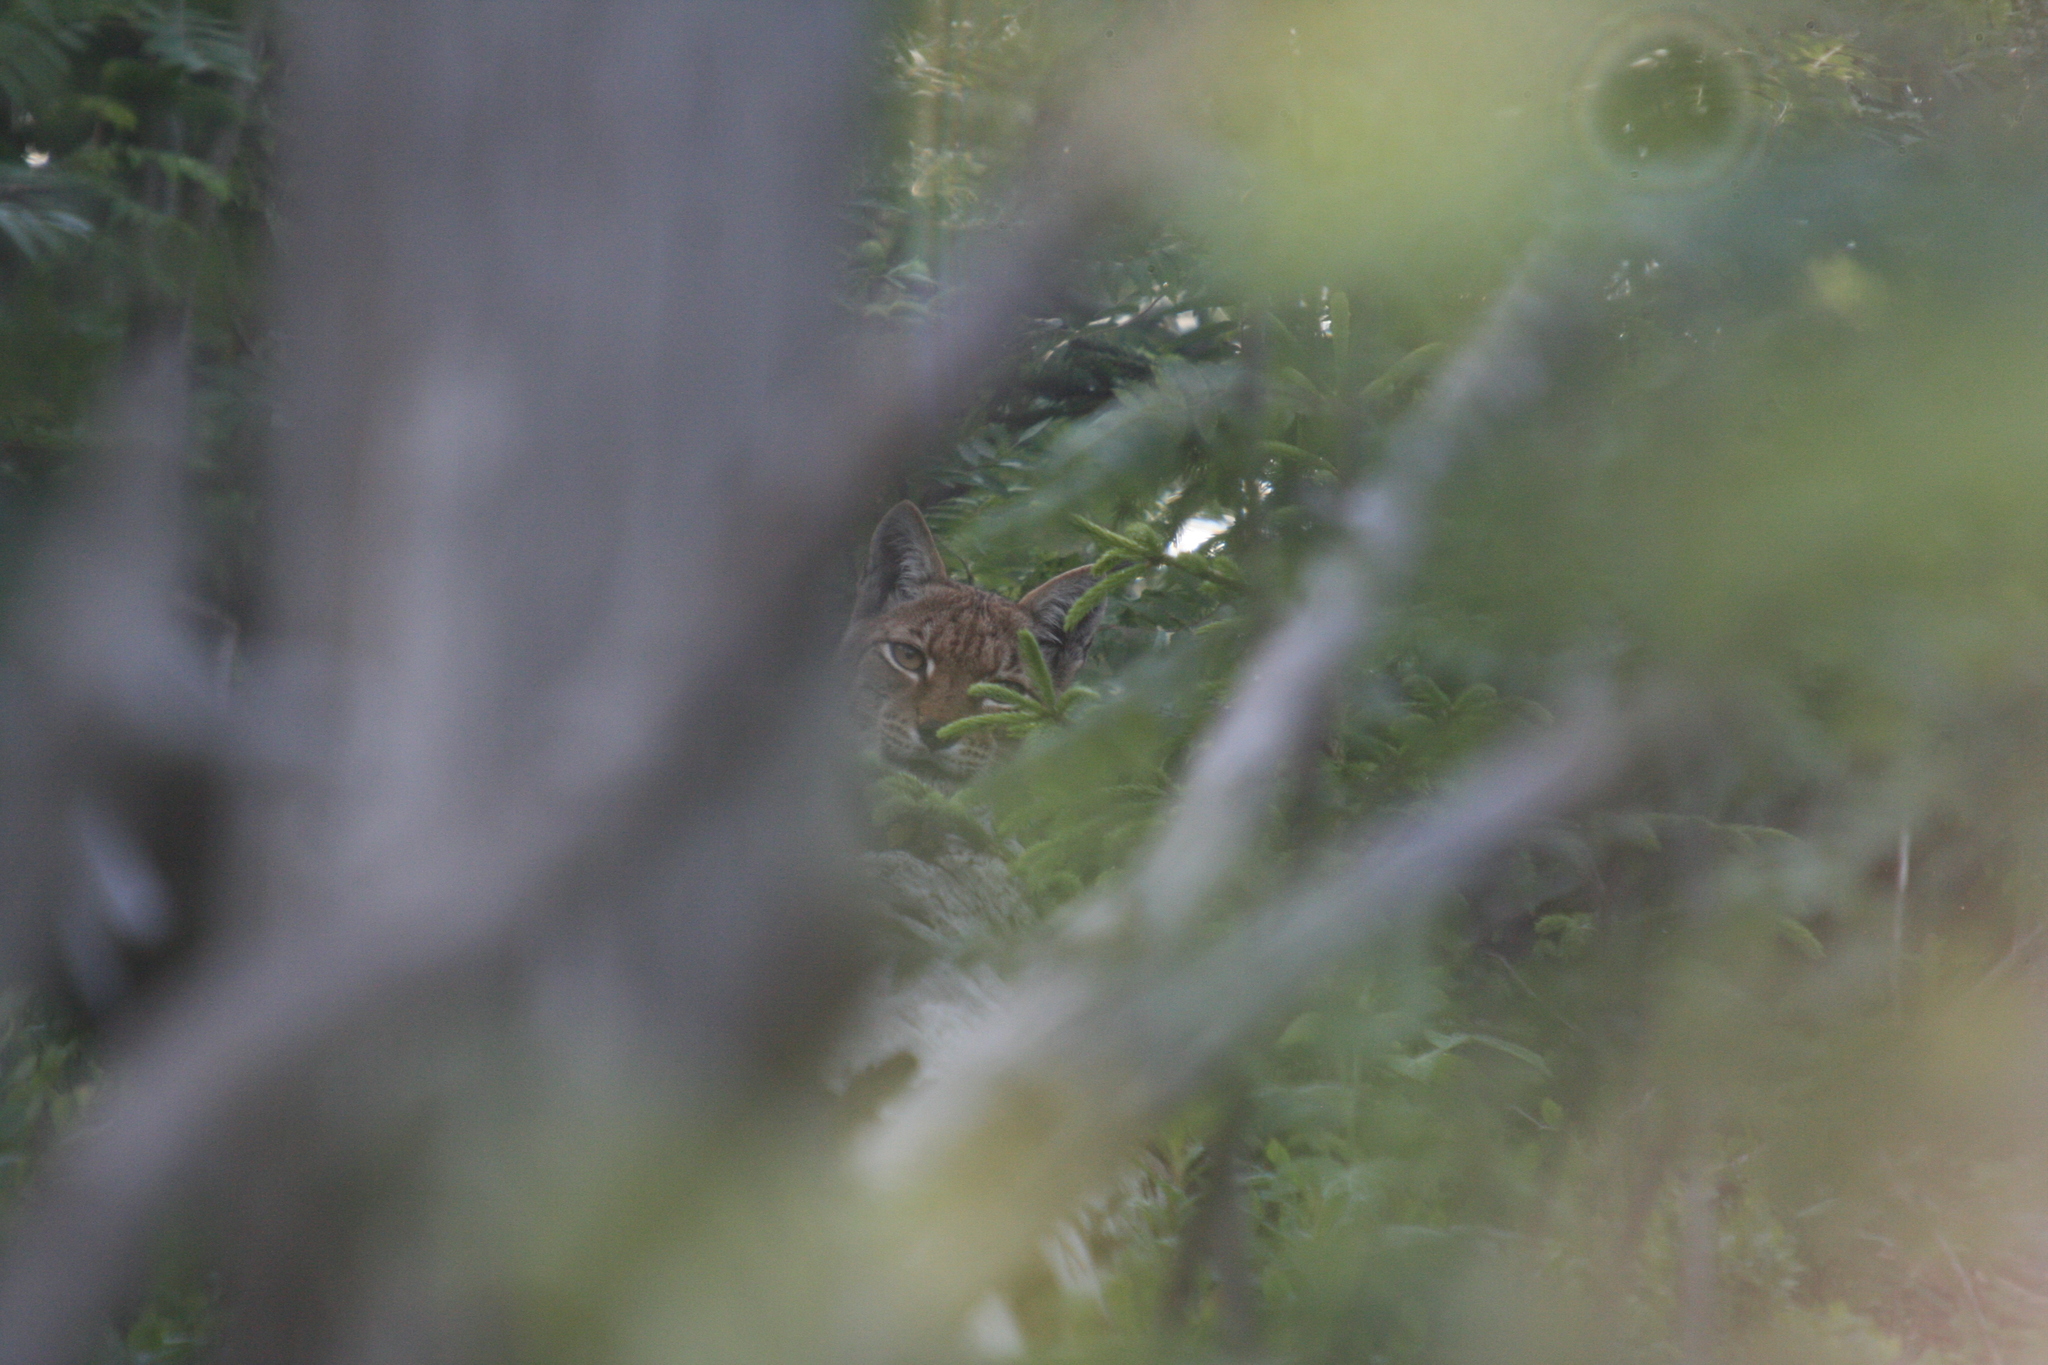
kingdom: Animalia
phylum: Chordata
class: Mammalia
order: Carnivora
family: Felidae
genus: Lynx
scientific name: Lynx lynx
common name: Eurasian lynx
